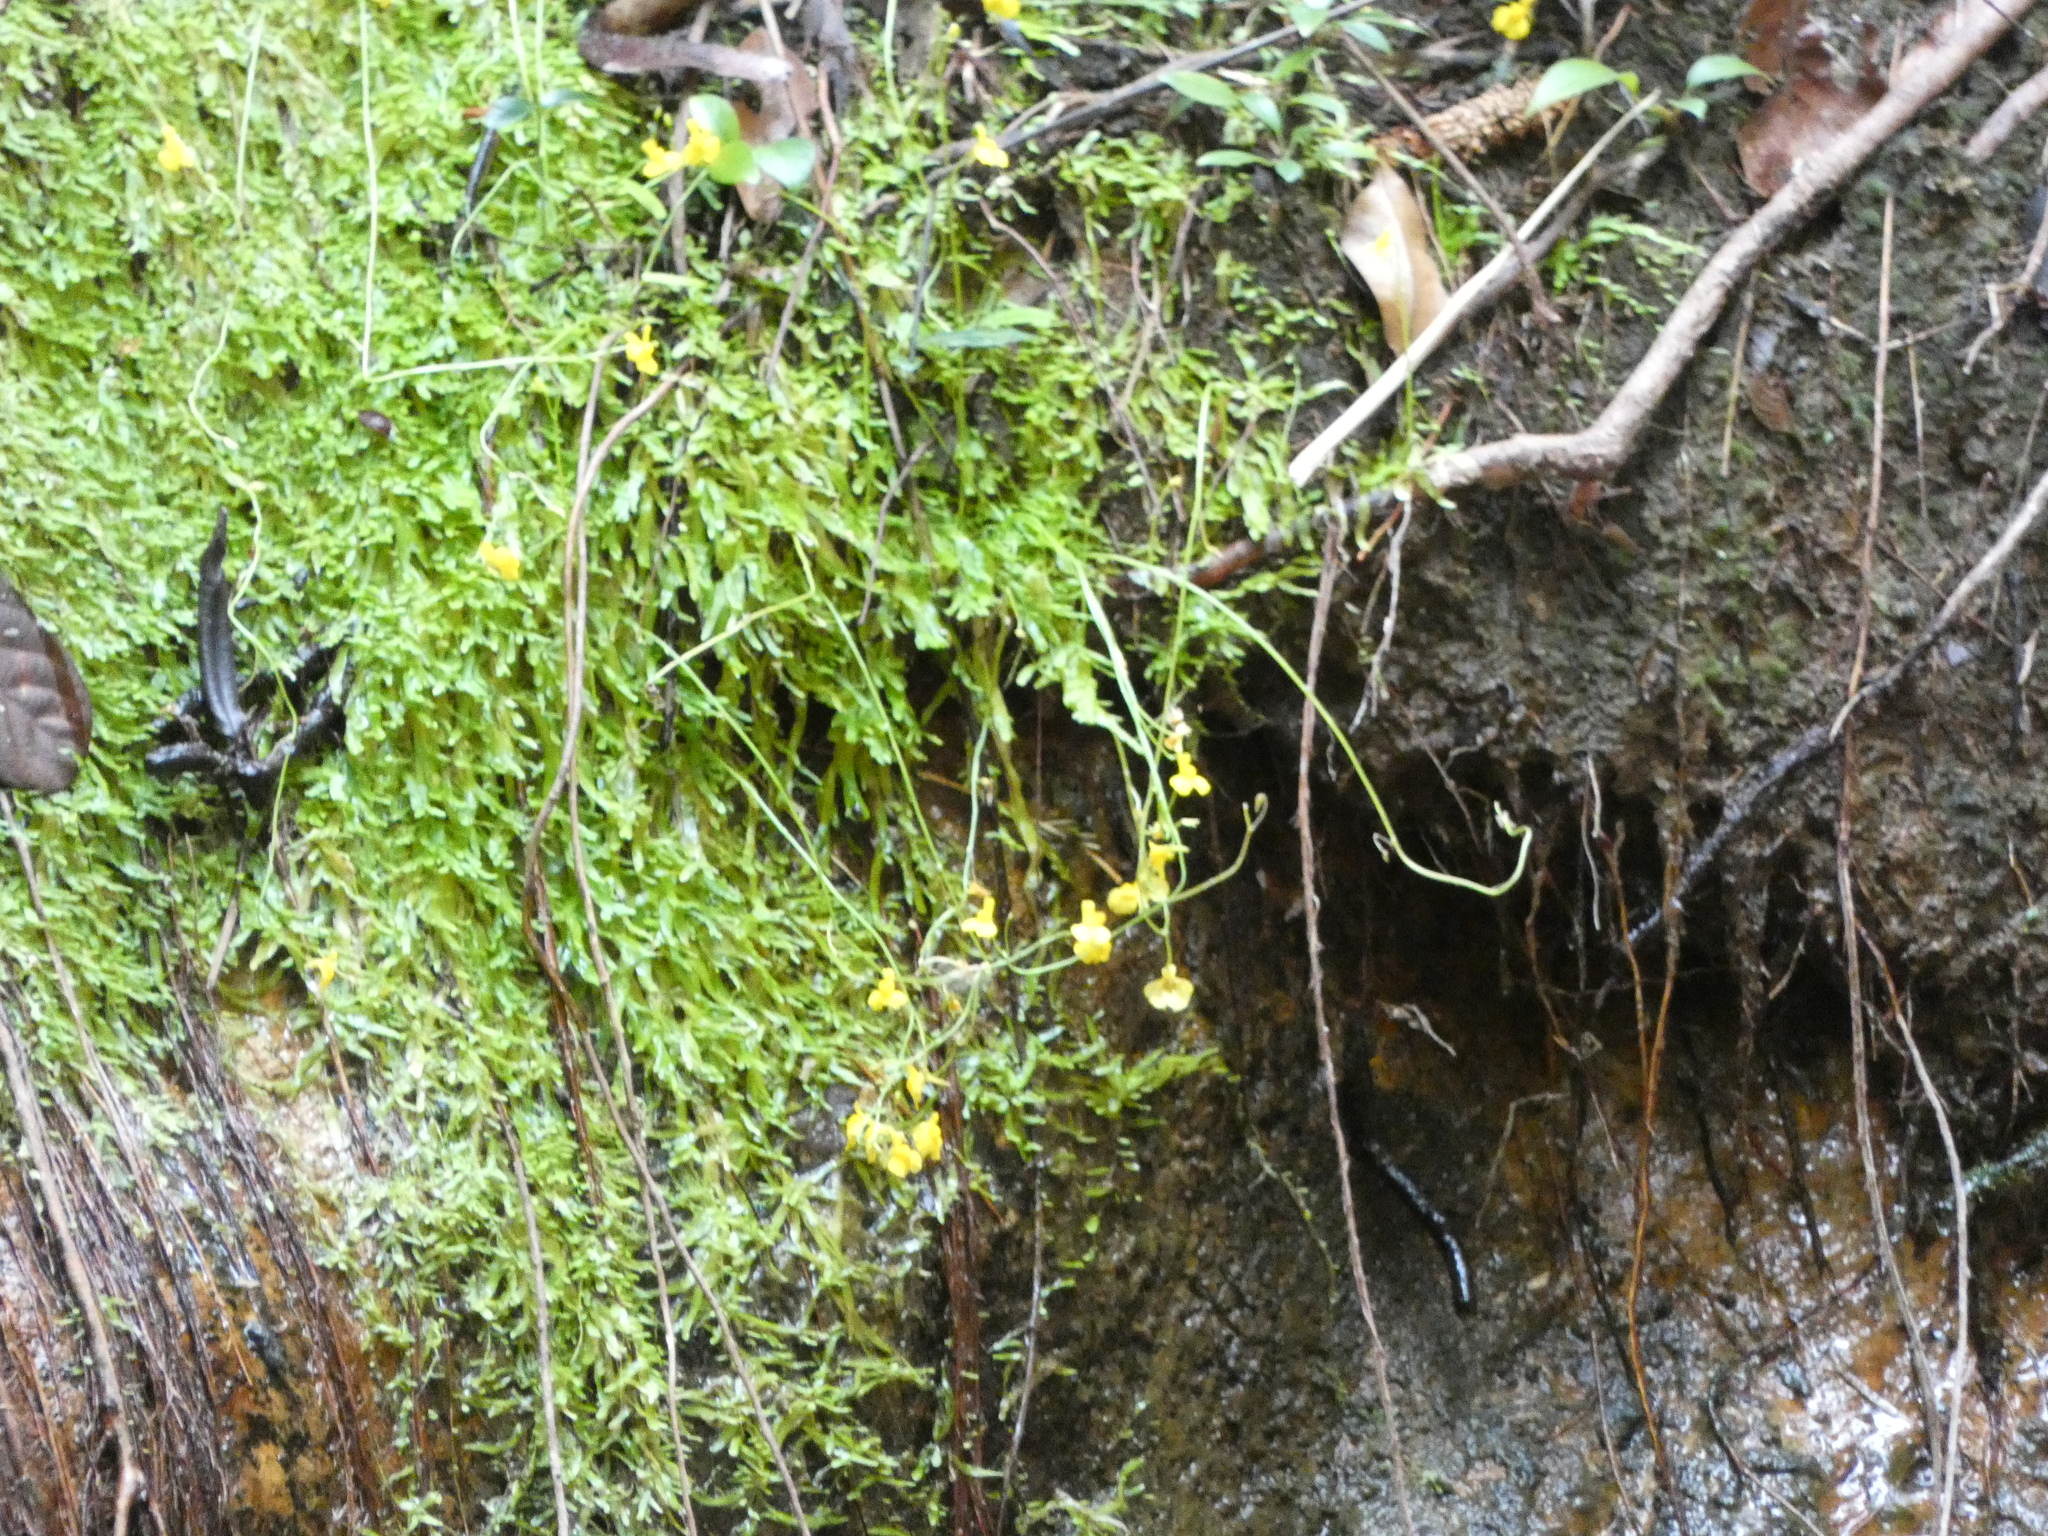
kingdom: Plantae
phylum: Tracheophyta
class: Magnoliopsida
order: Lamiales
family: Lentibulariaceae
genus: Utricularia
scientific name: Utricularia bosminifera
